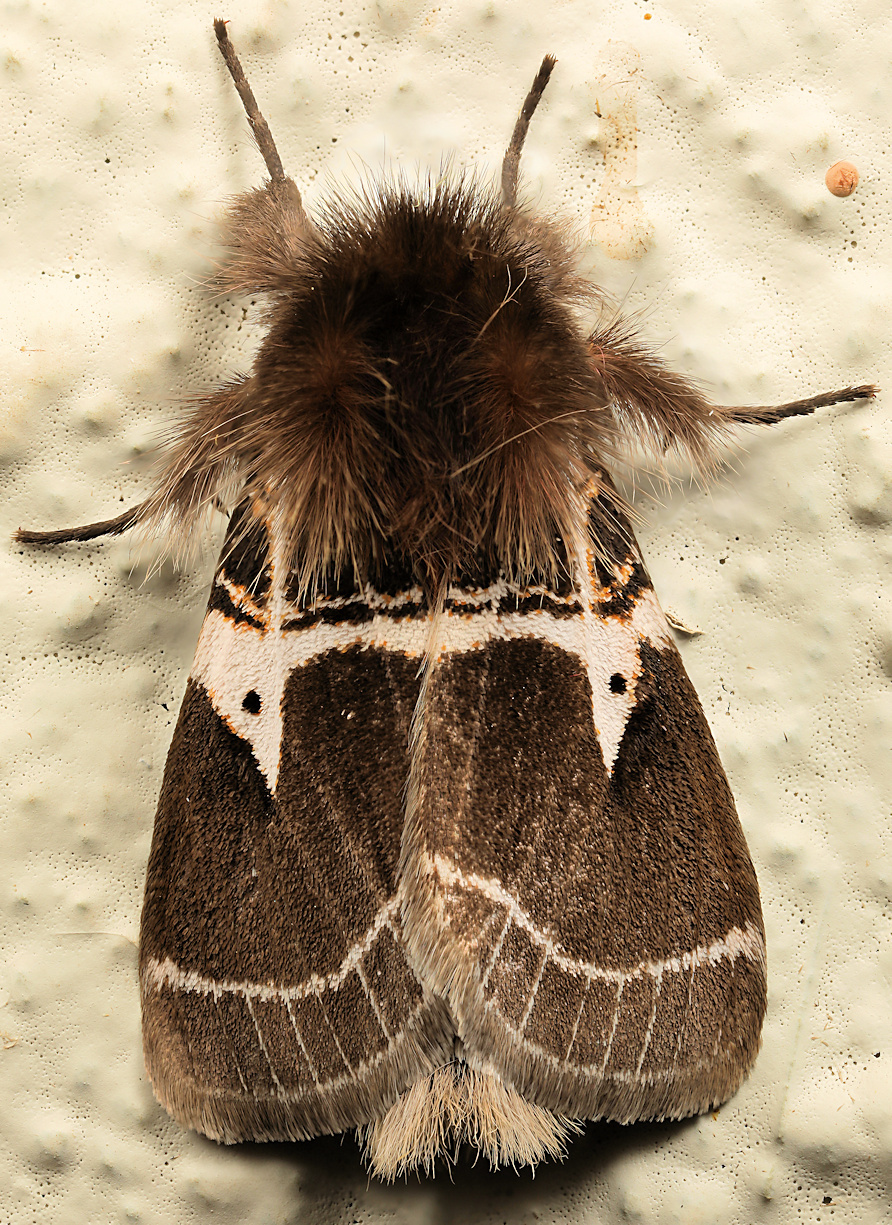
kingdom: Animalia
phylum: Arthropoda
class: Insecta
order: Lepidoptera
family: Erebidae
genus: Lymantria
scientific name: Lymantria Morasa modesta
